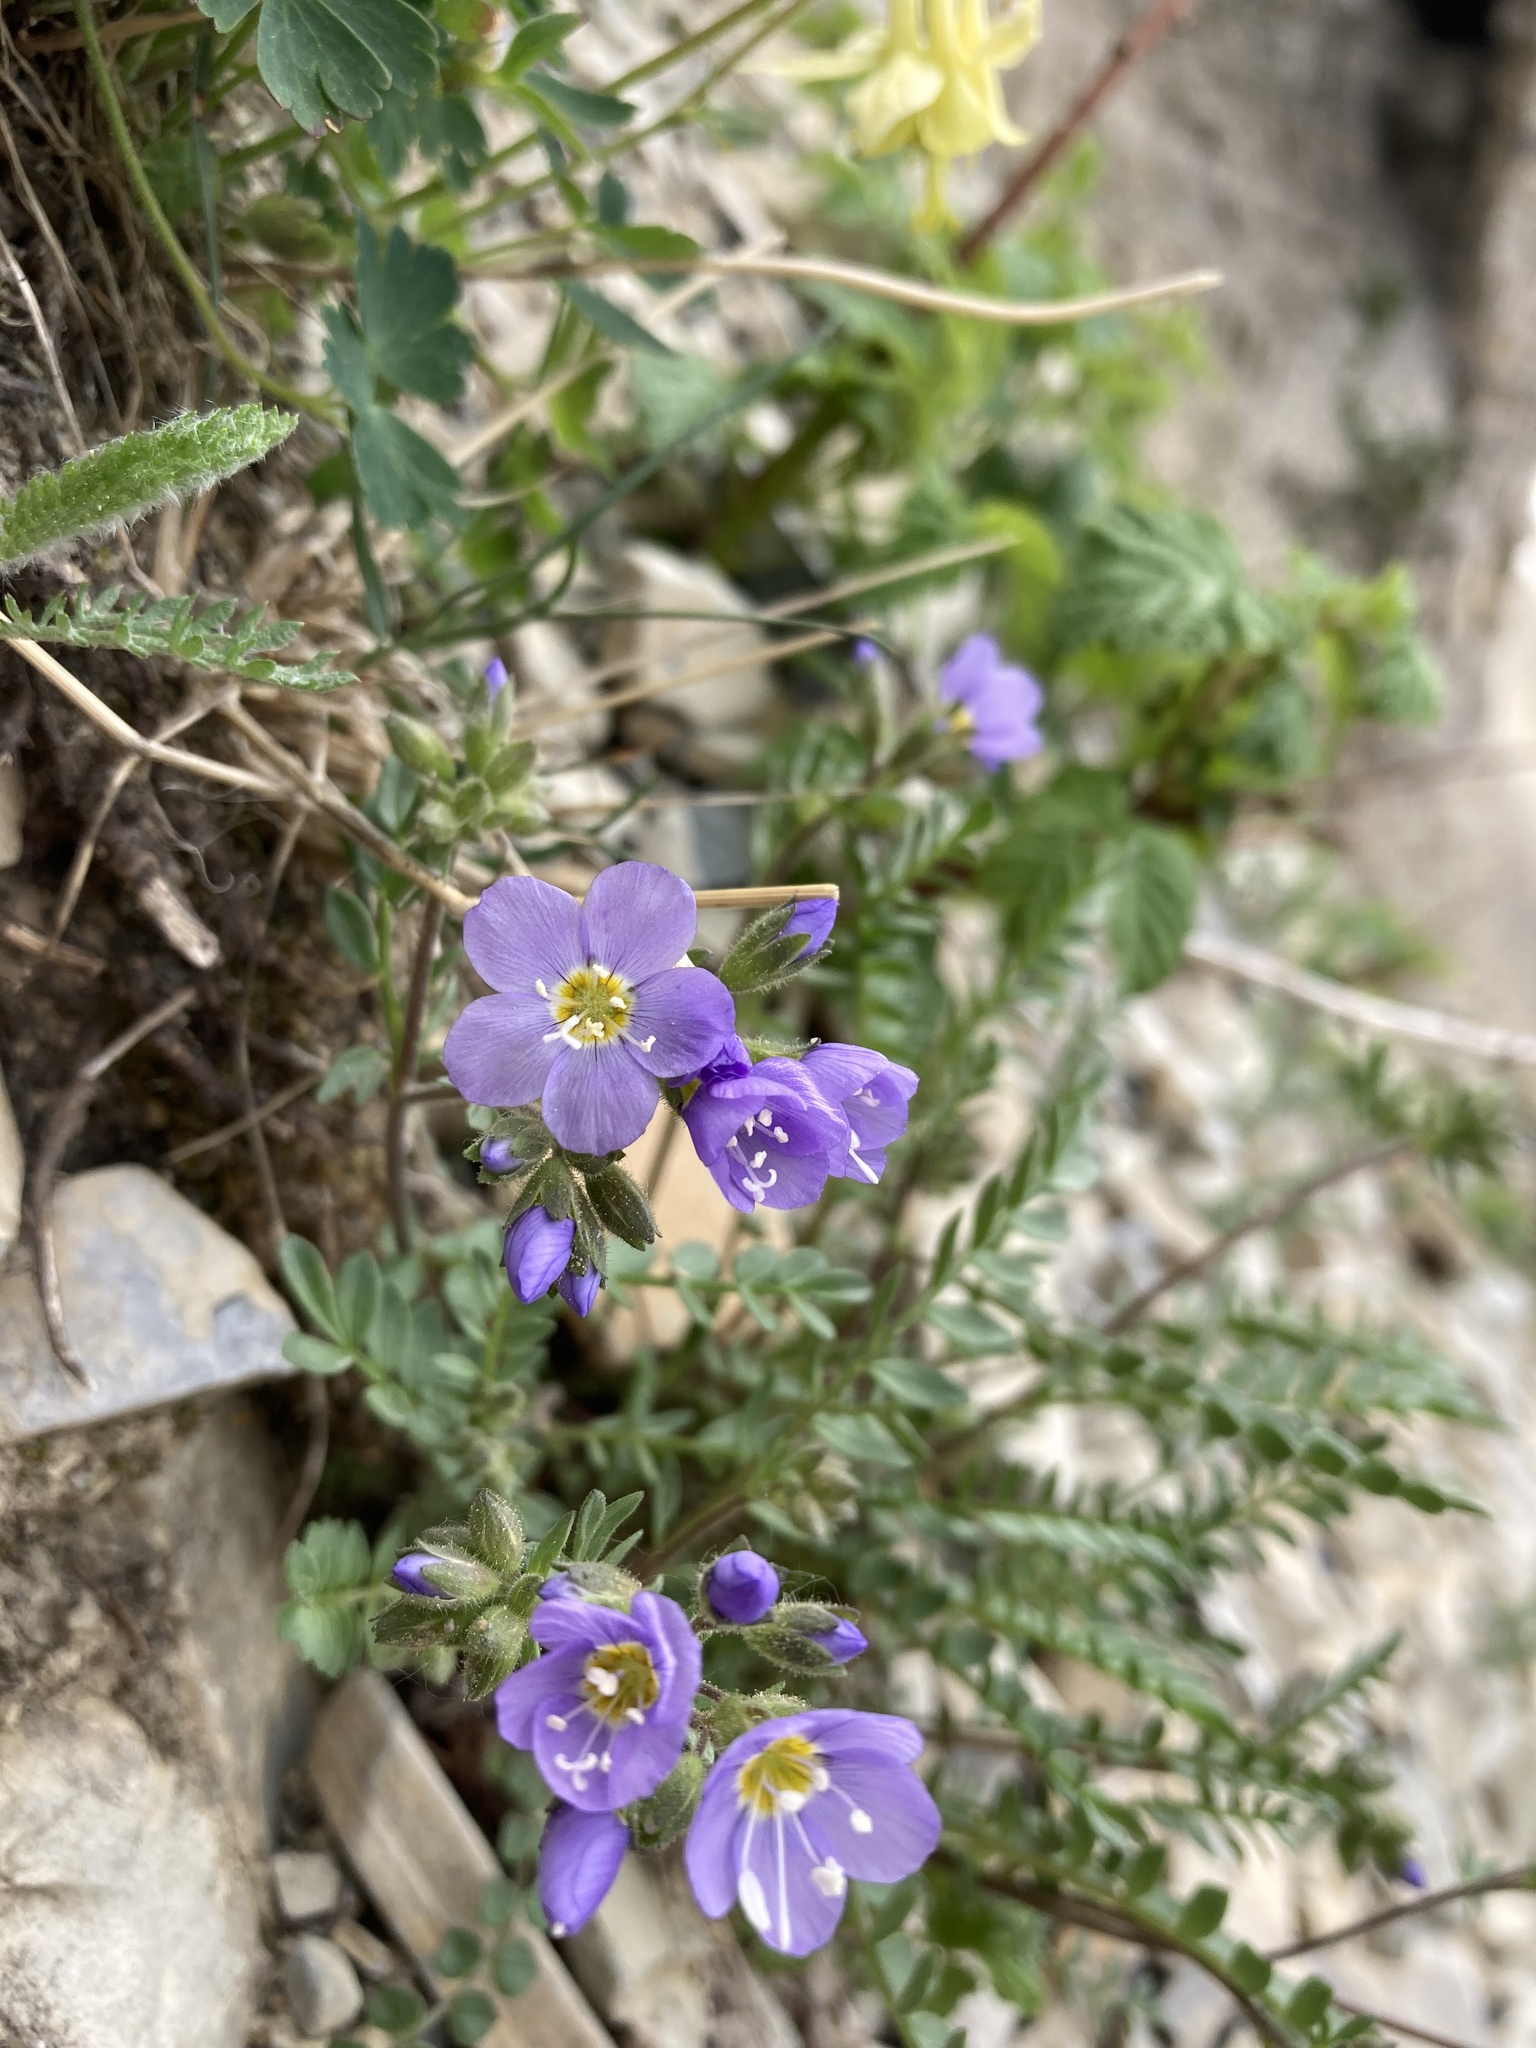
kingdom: Plantae
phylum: Tracheophyta
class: Magnoliopsida
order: Ericales
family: Polemoniaceae
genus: Polemonium
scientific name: Polemonium pulcherrimum
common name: Short jacob's-ladder
